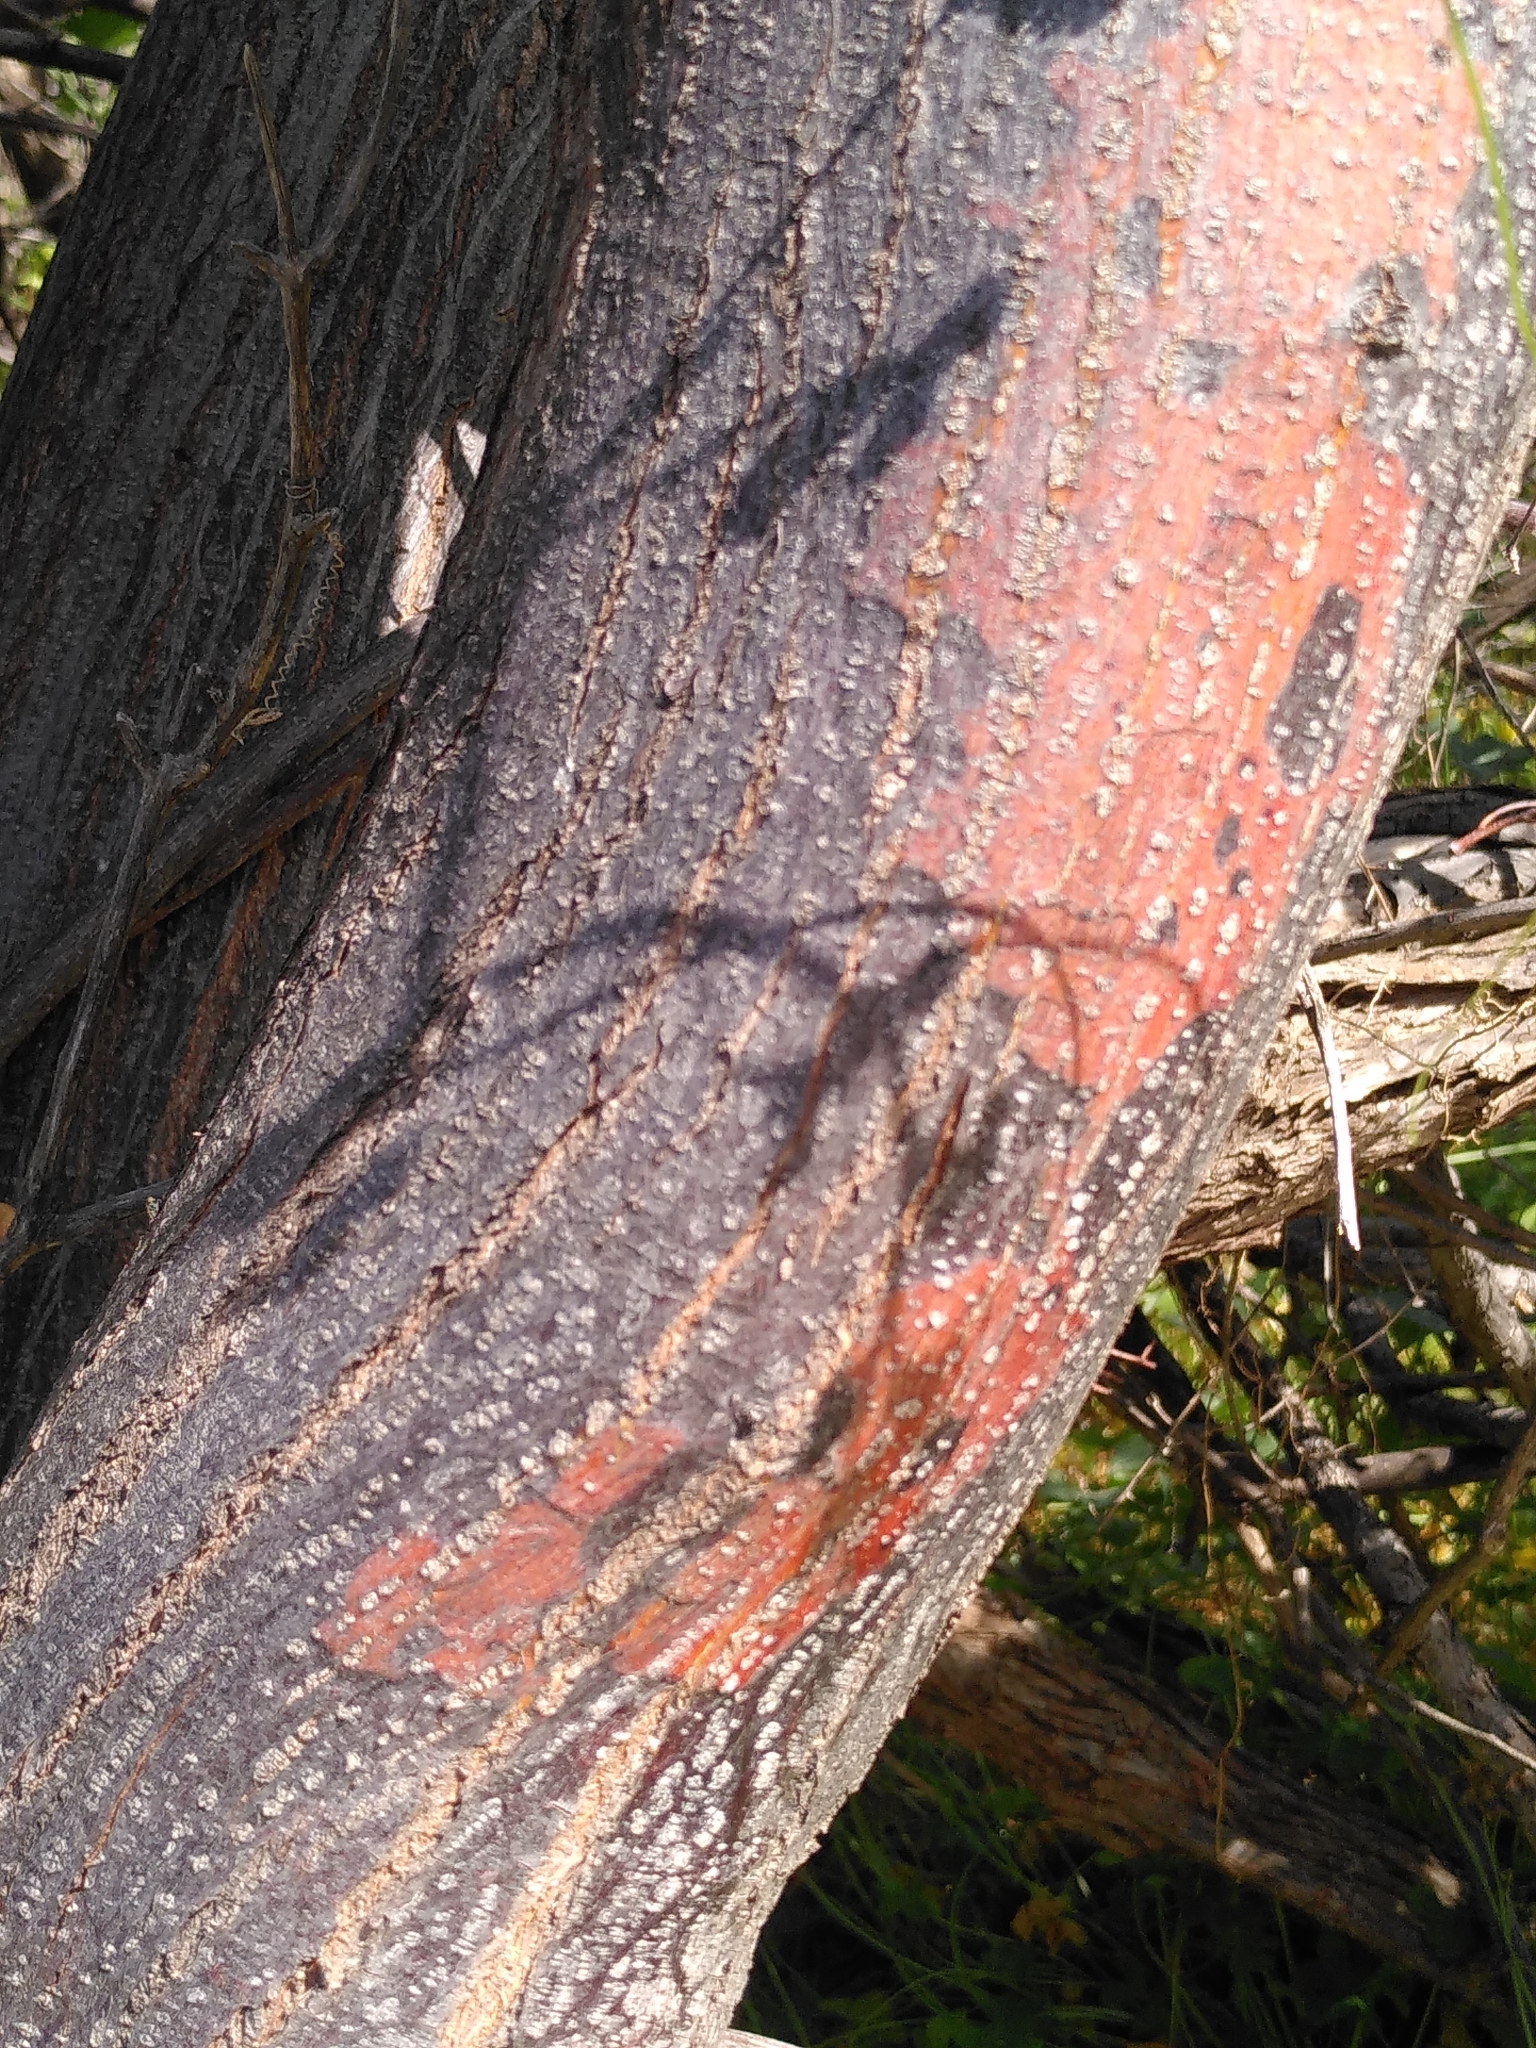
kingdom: Plantae
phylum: Tracheophyta
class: Magnoliopsida
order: Sapindales
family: Meliaceae
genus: Melia
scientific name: Melia azedarach
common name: Chinaberrytree
